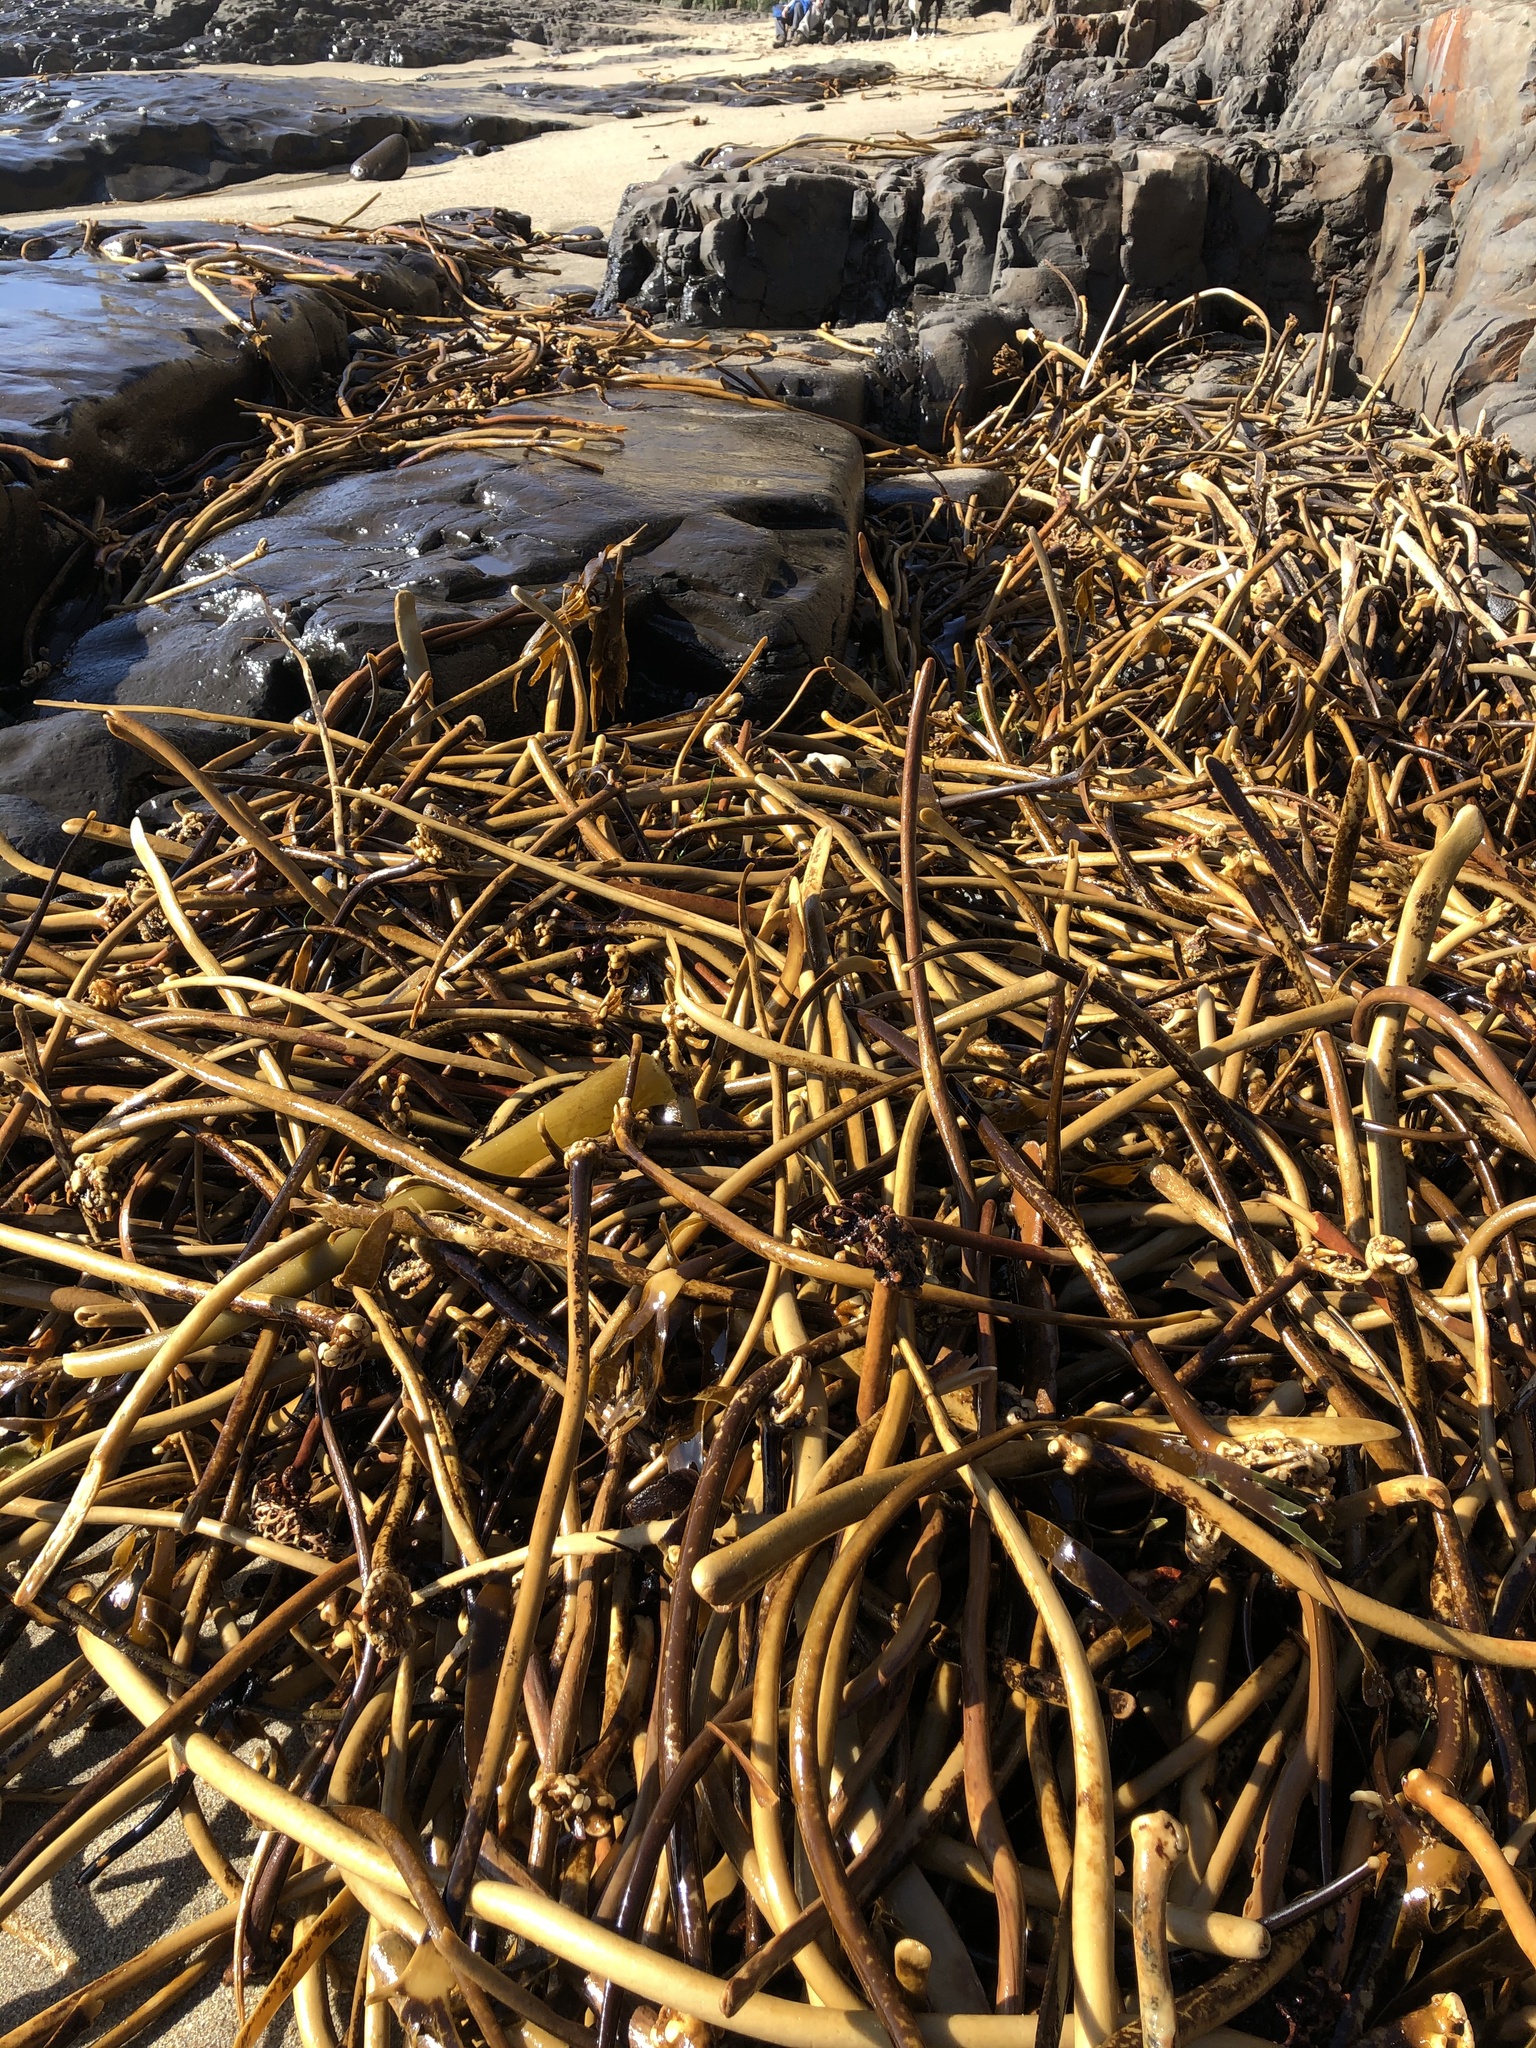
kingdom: Chromista
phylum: Ochrophyta
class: Phaeophyceae
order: Laminariales
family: Laminariaceae
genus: Laminaria
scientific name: Laminaria setchellii
